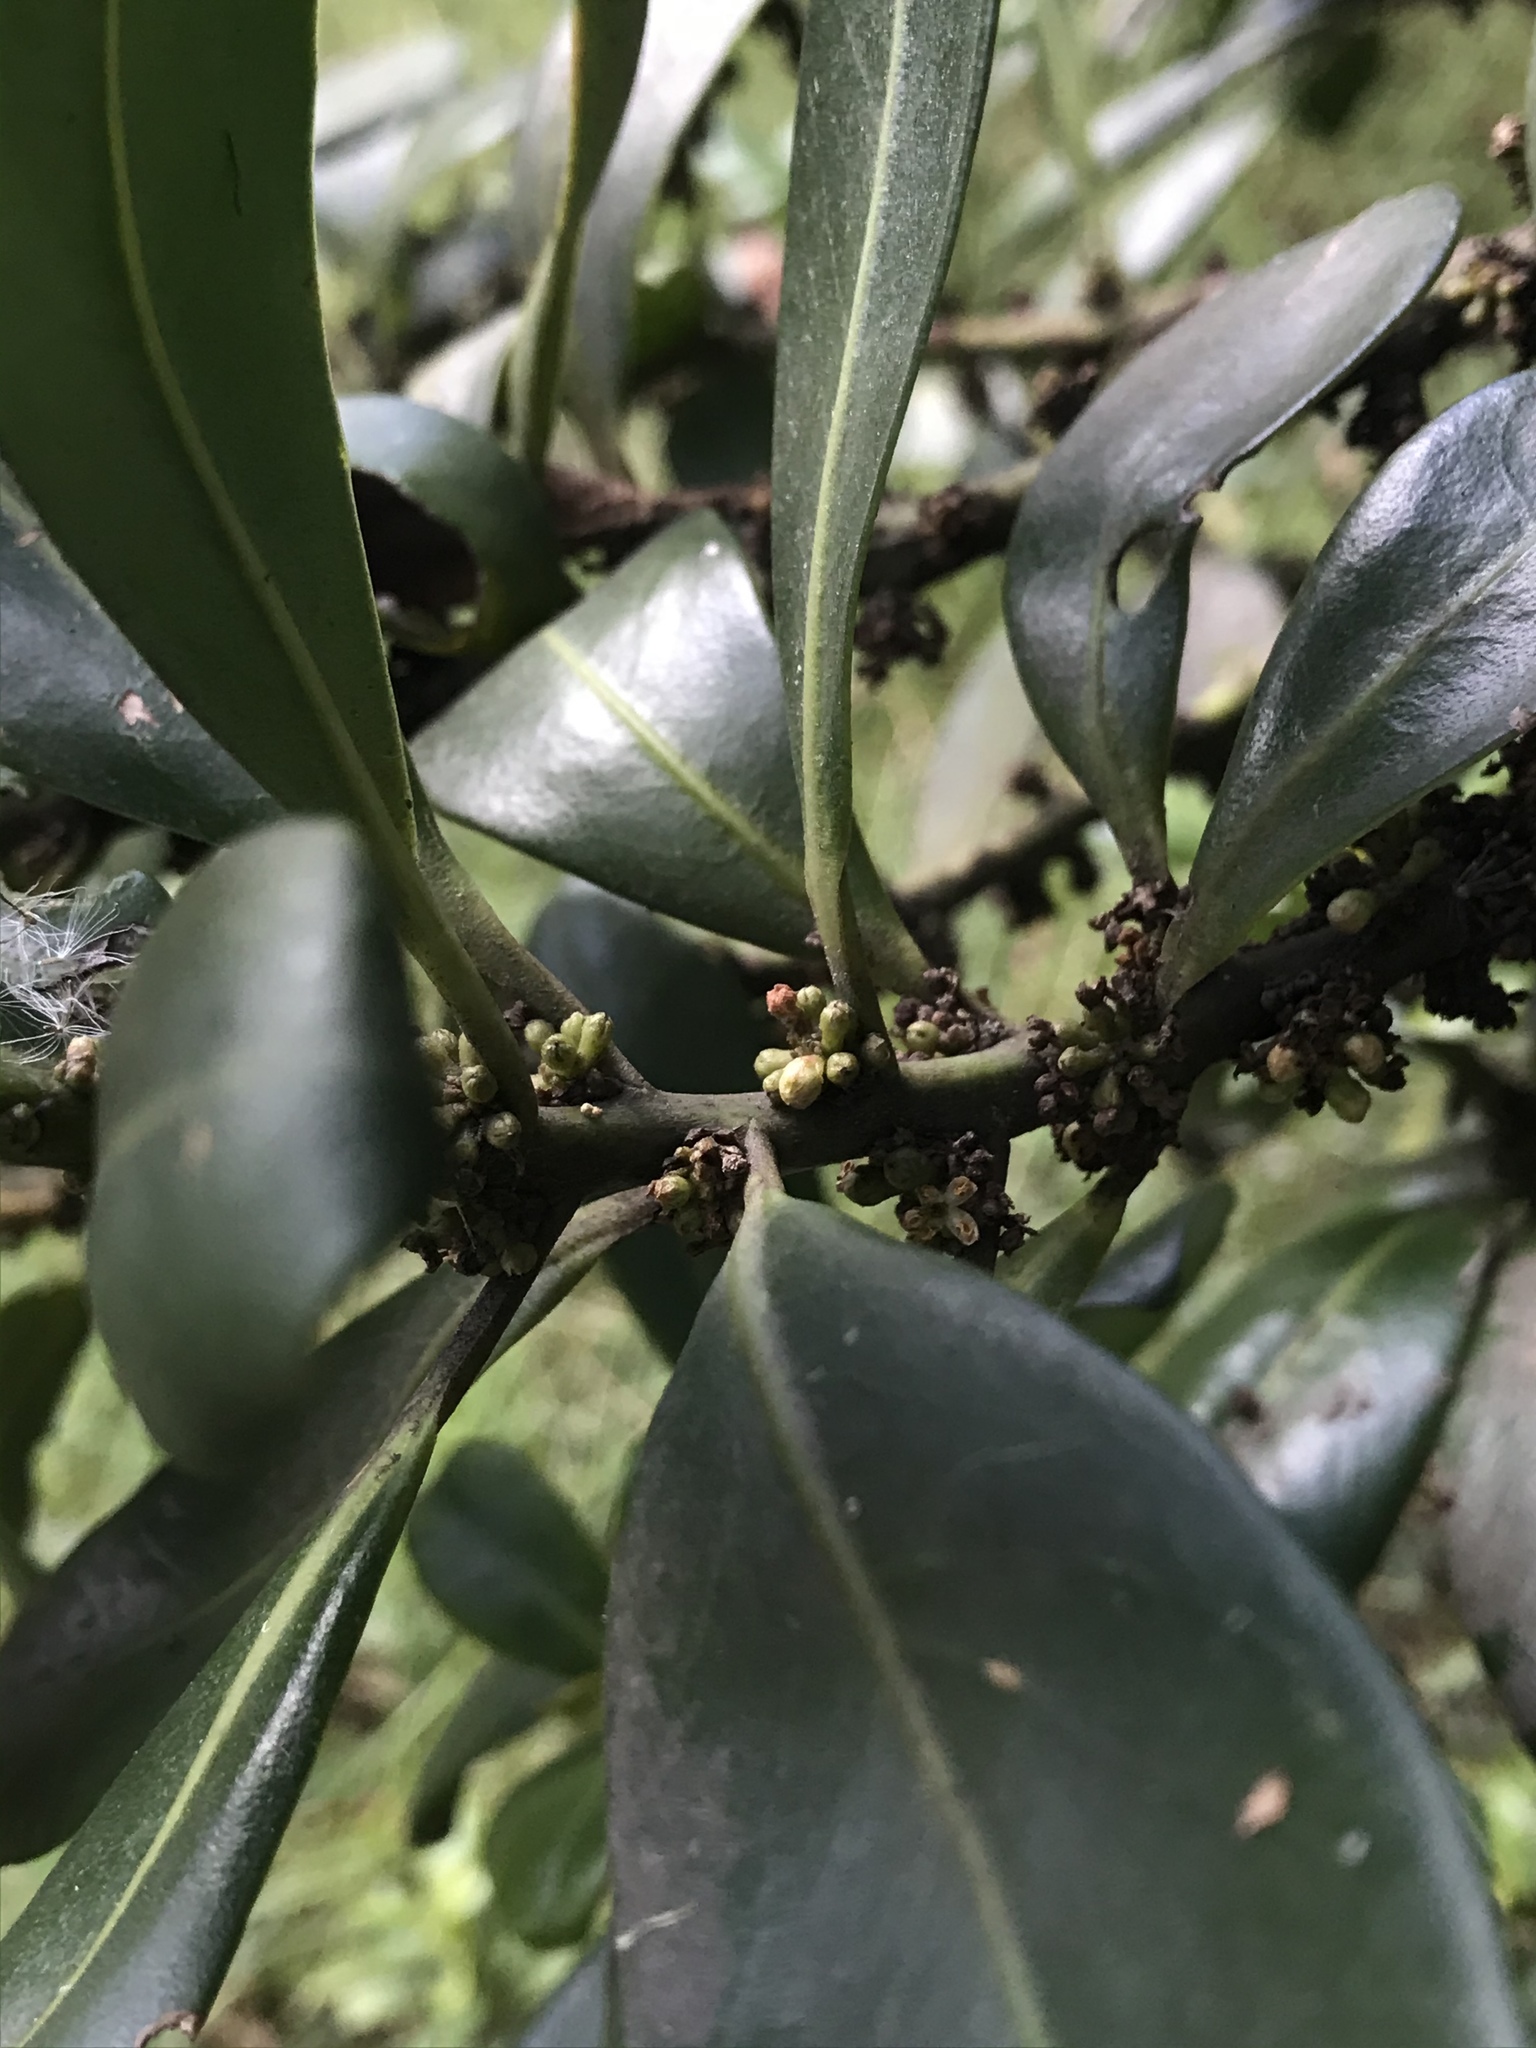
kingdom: Plantae
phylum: Tracheophyta
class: Magnoliopsida
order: Ericales
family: Primulaceae
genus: Myrsine
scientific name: Myrsine guianensis
